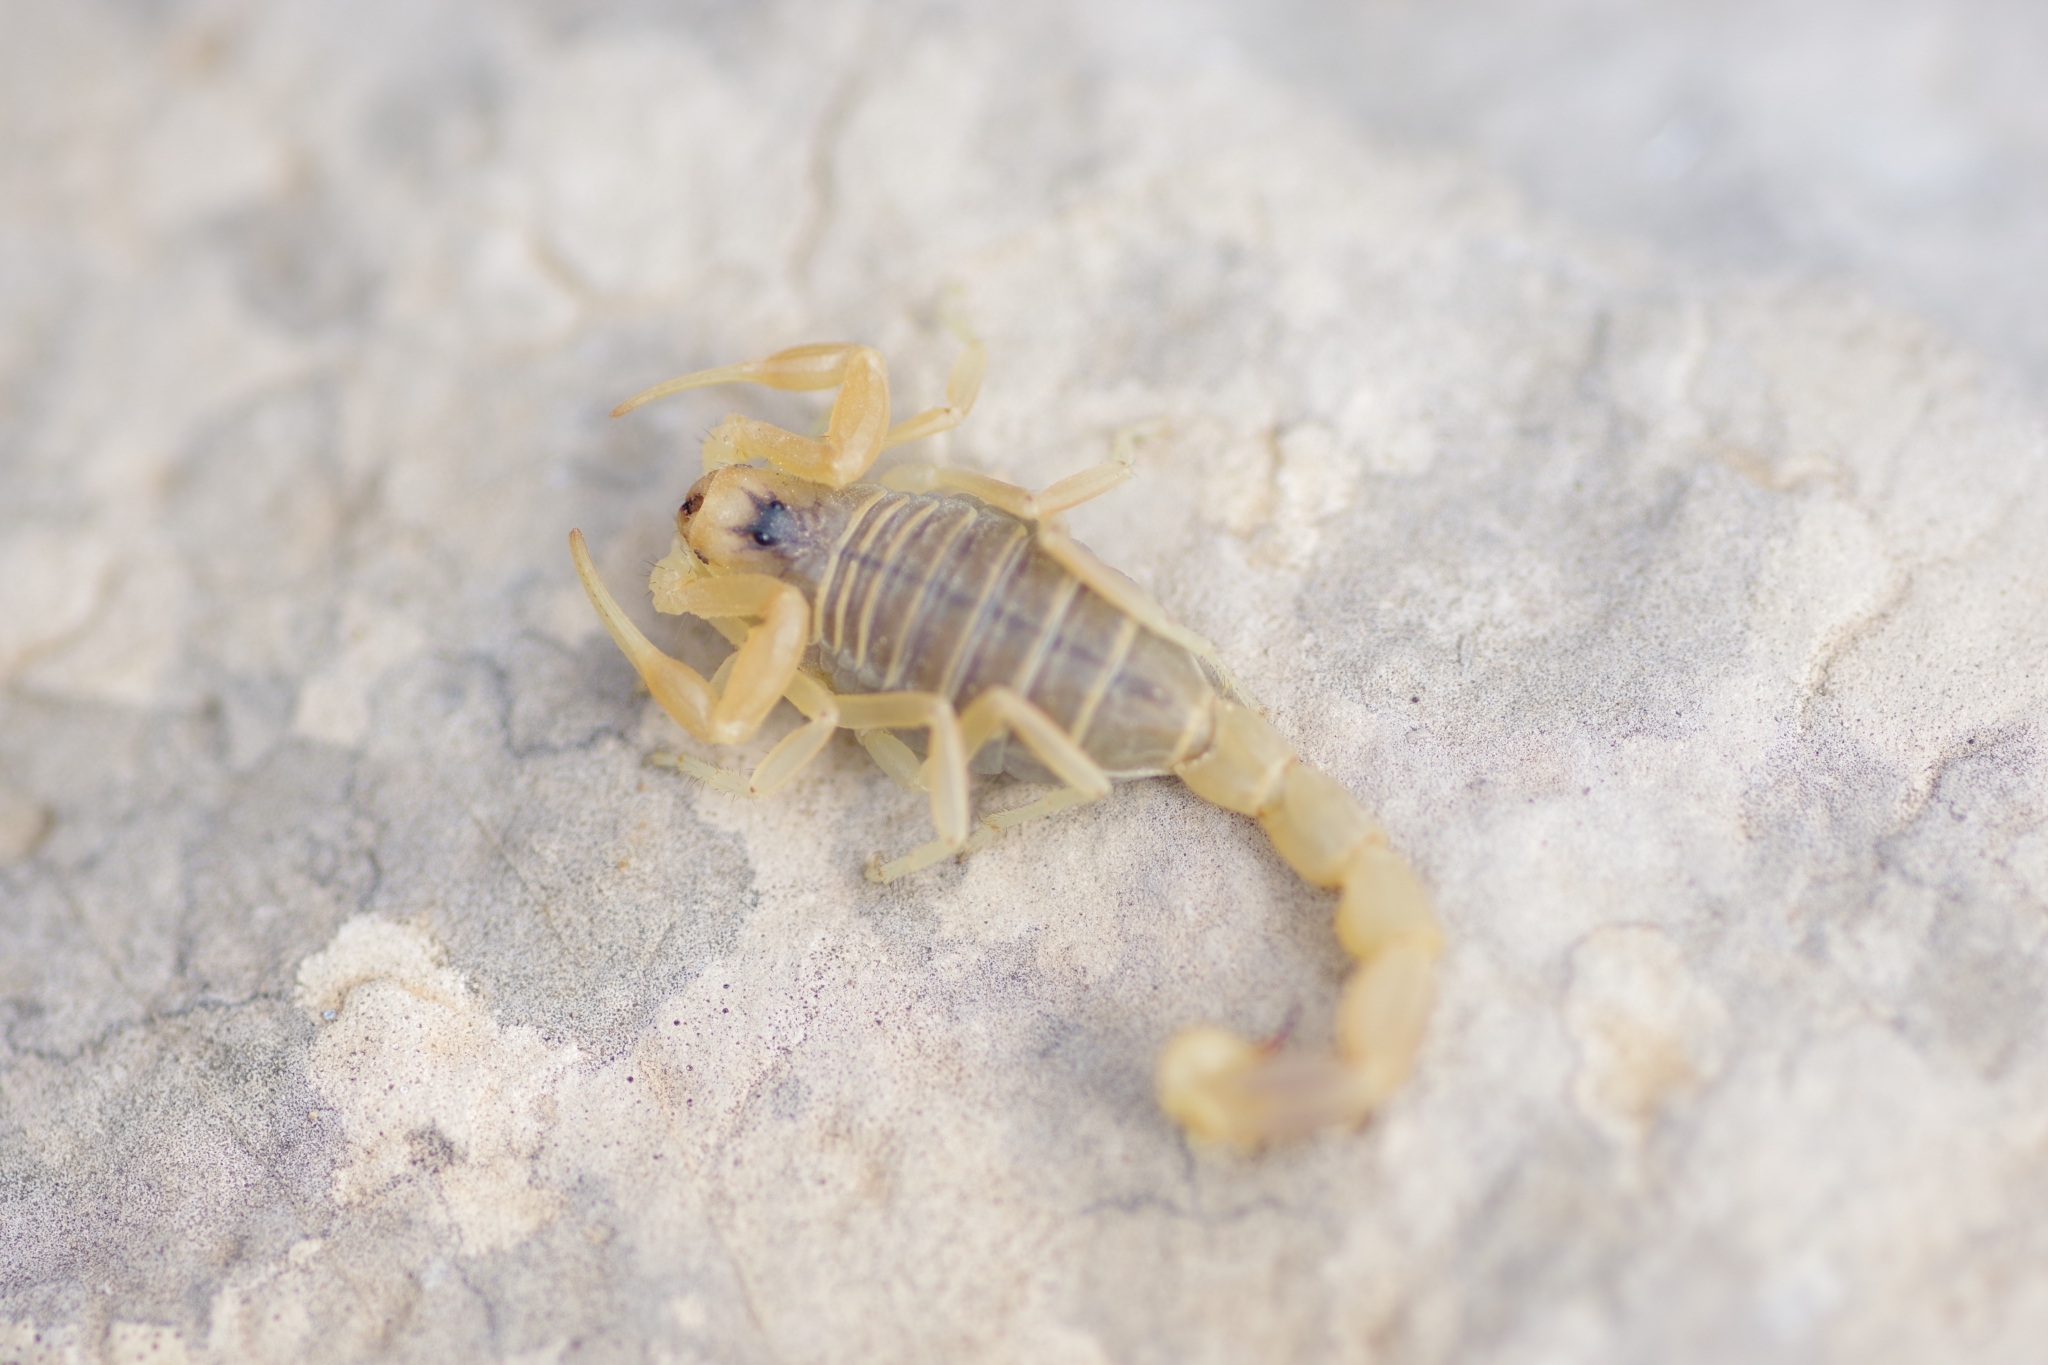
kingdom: Animalia
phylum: Arthropoda
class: Arachnida
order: Scorpiones
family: Buthidae
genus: Buthus
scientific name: Buthus occitanus
